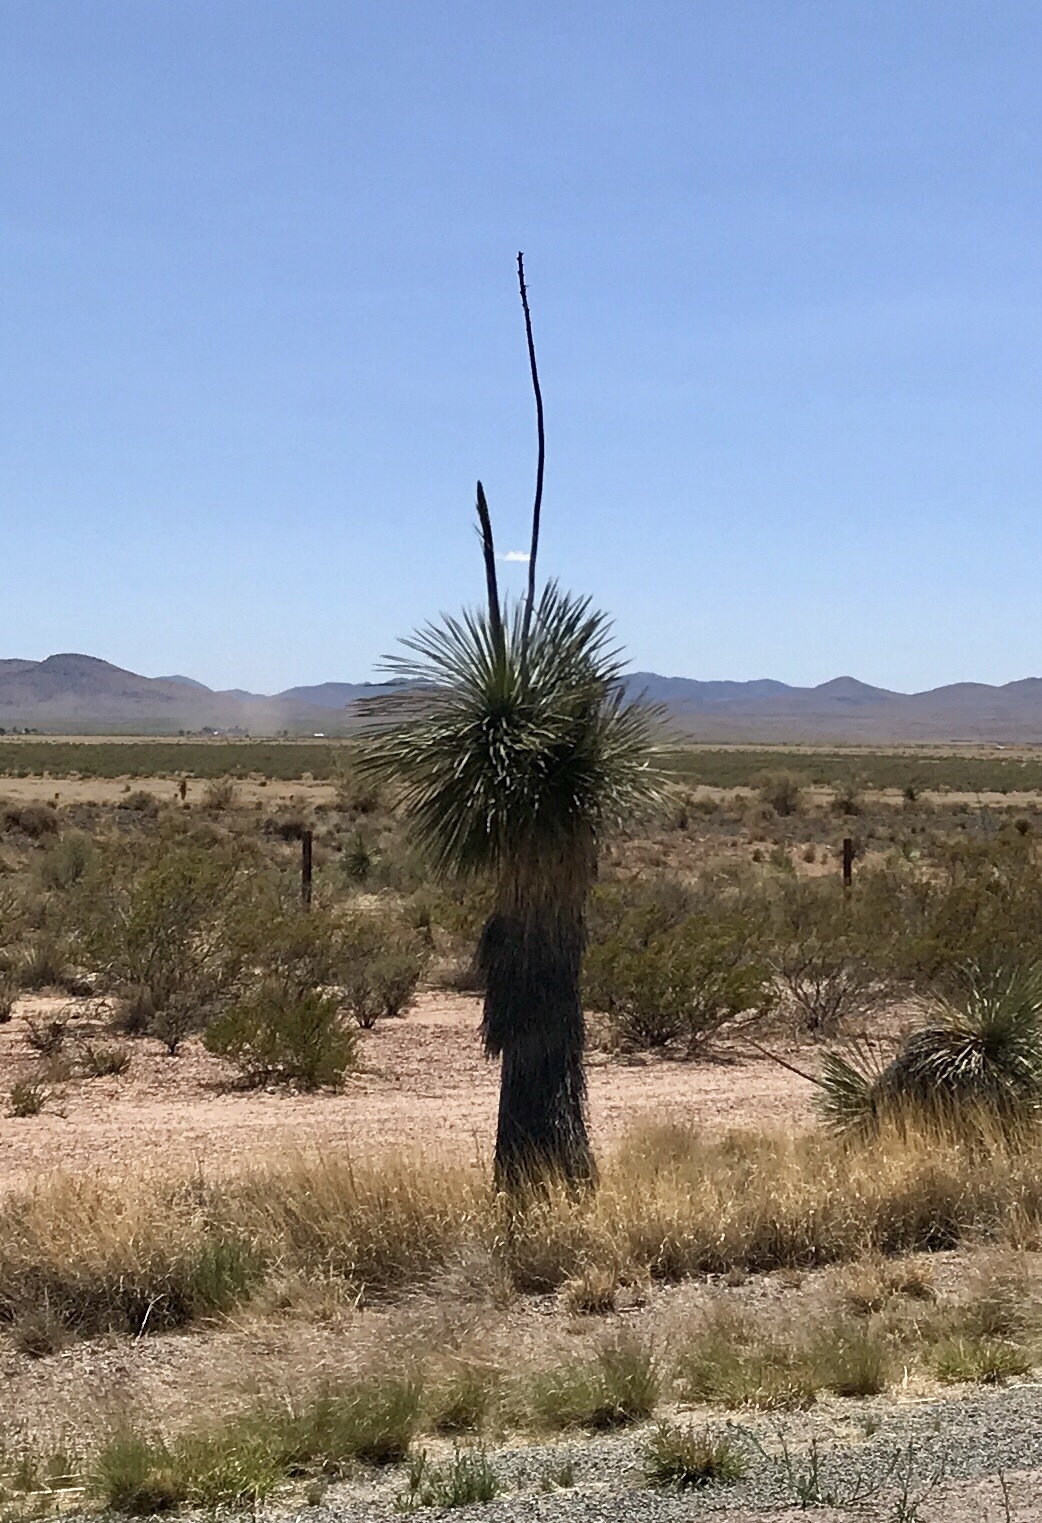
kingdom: Plantae
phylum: Tracheophyta
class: Liliopsida
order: Asparagales
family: Asparagaceae
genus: Yucca
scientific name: Yucca elata
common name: Palmella
